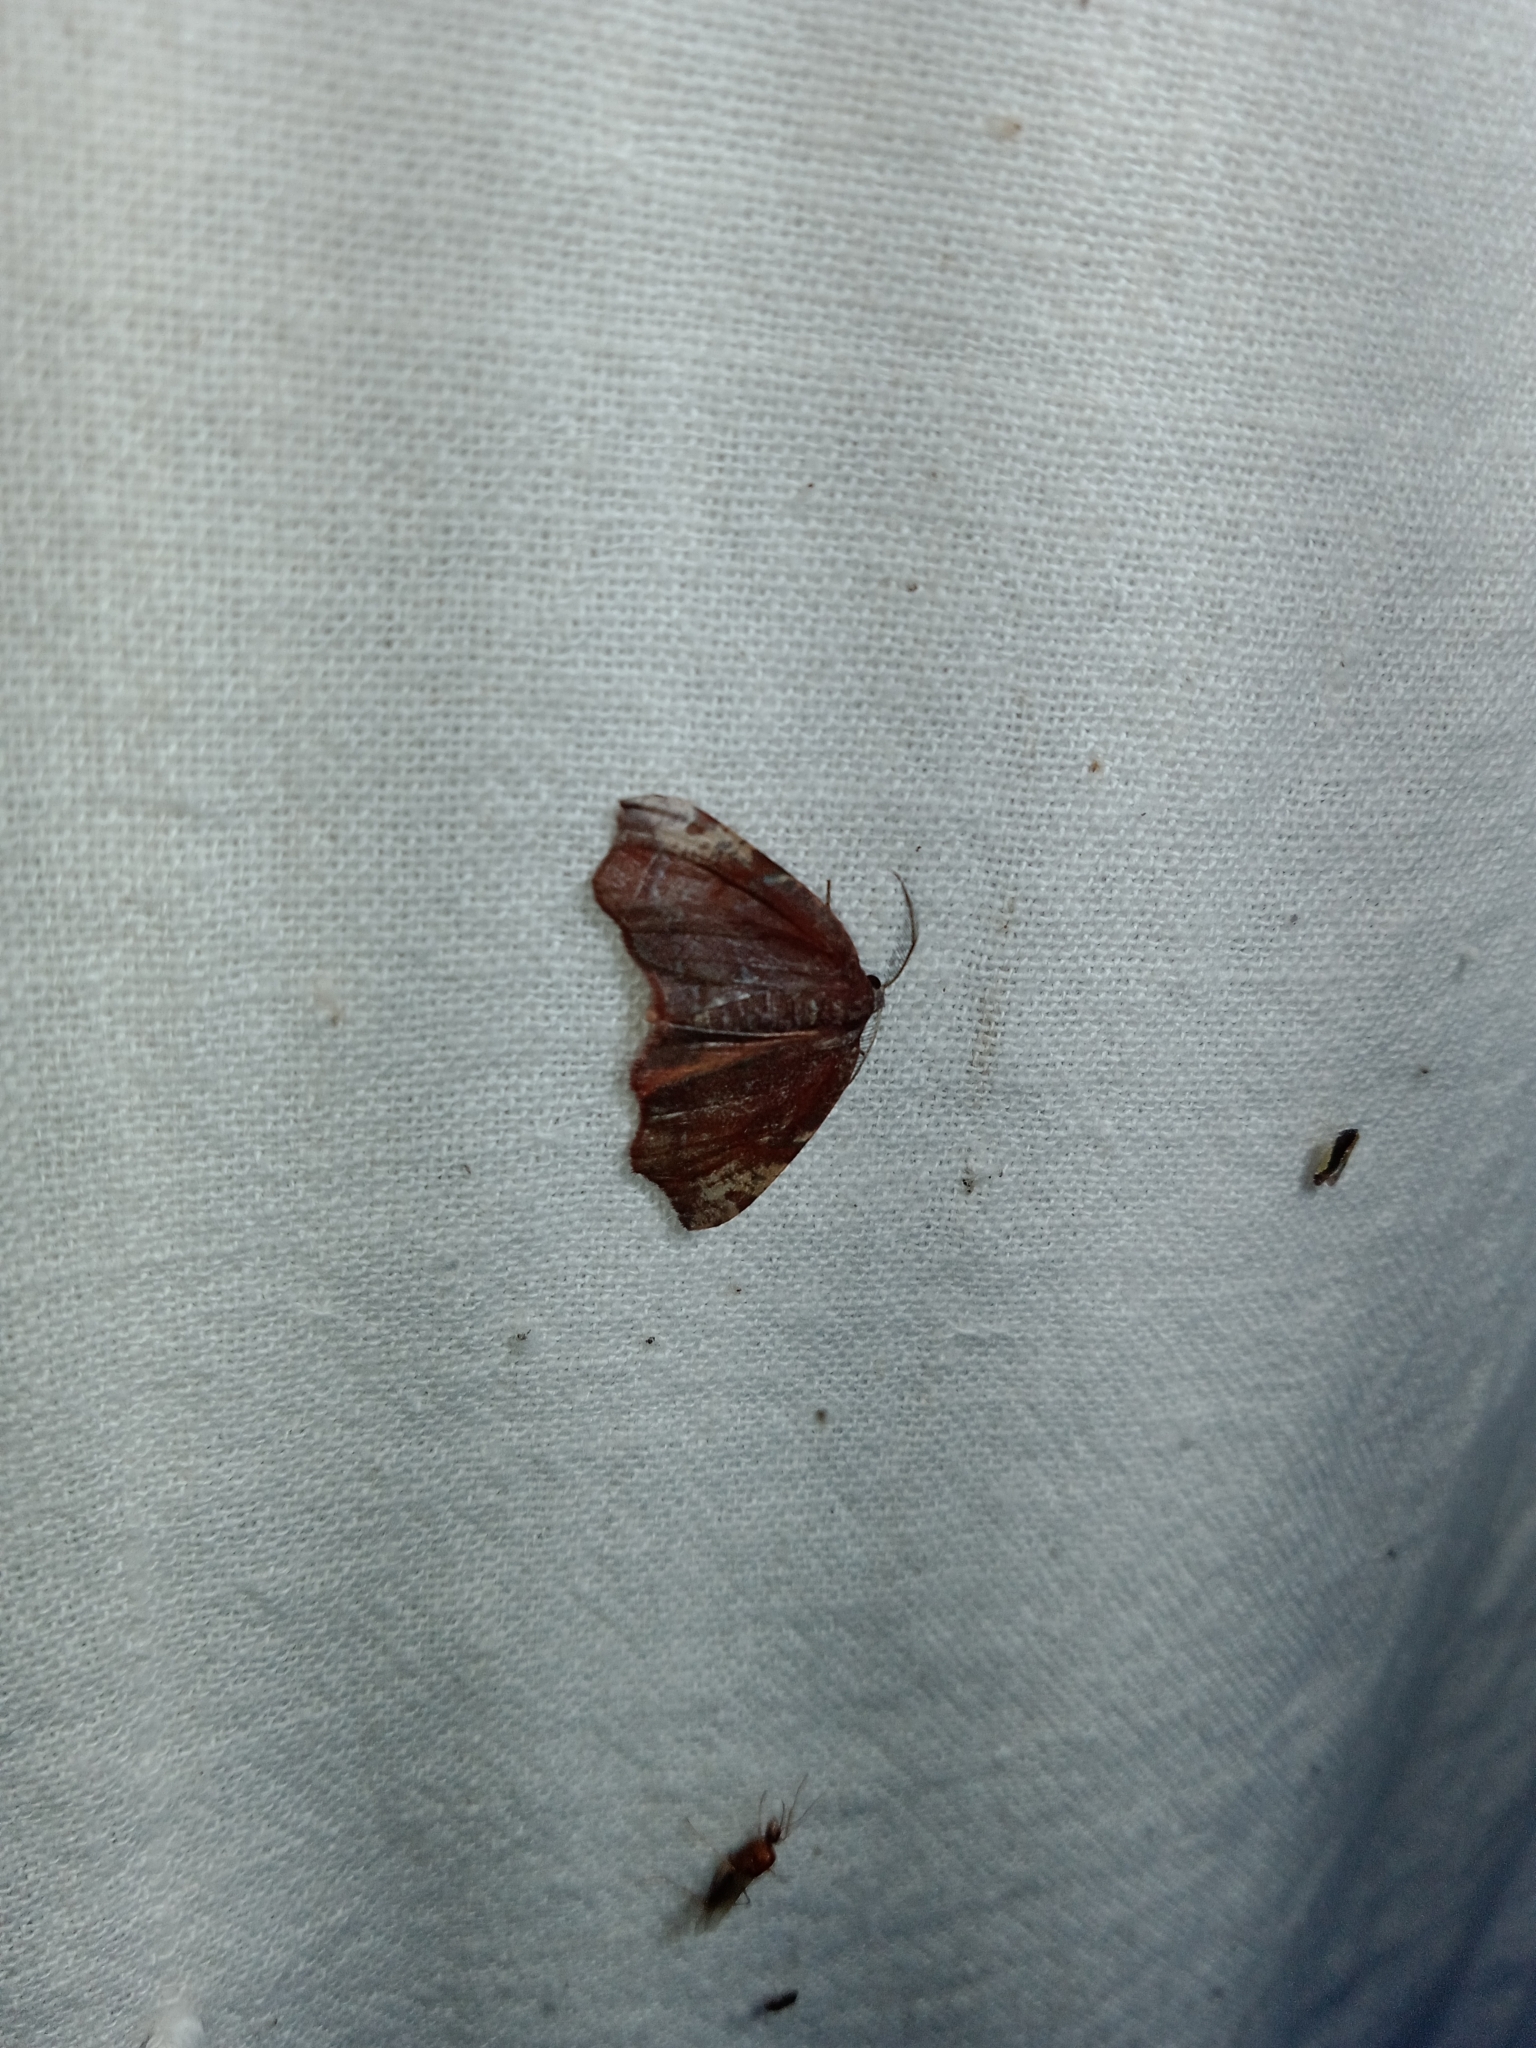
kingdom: Animalia
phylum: Arthropoda
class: Insecta
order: Lepidoptera
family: Geometridae
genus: Achrosis
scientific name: Achrosis rondelaria
